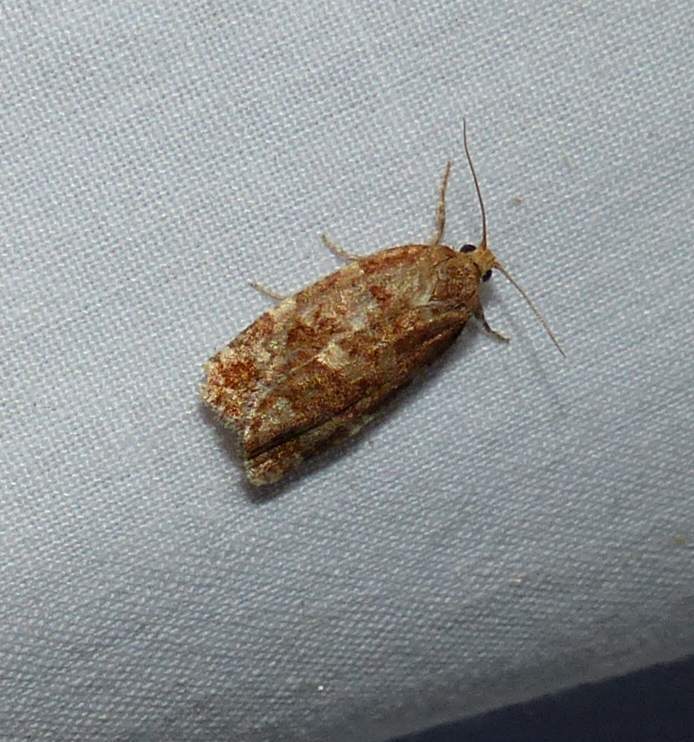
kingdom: Animalia
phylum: Arthropoda
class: Insecta
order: Lepidoptera
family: Tortricidae
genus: Choristoneura
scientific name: Choristoneura pinus
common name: Jack pine budworm
